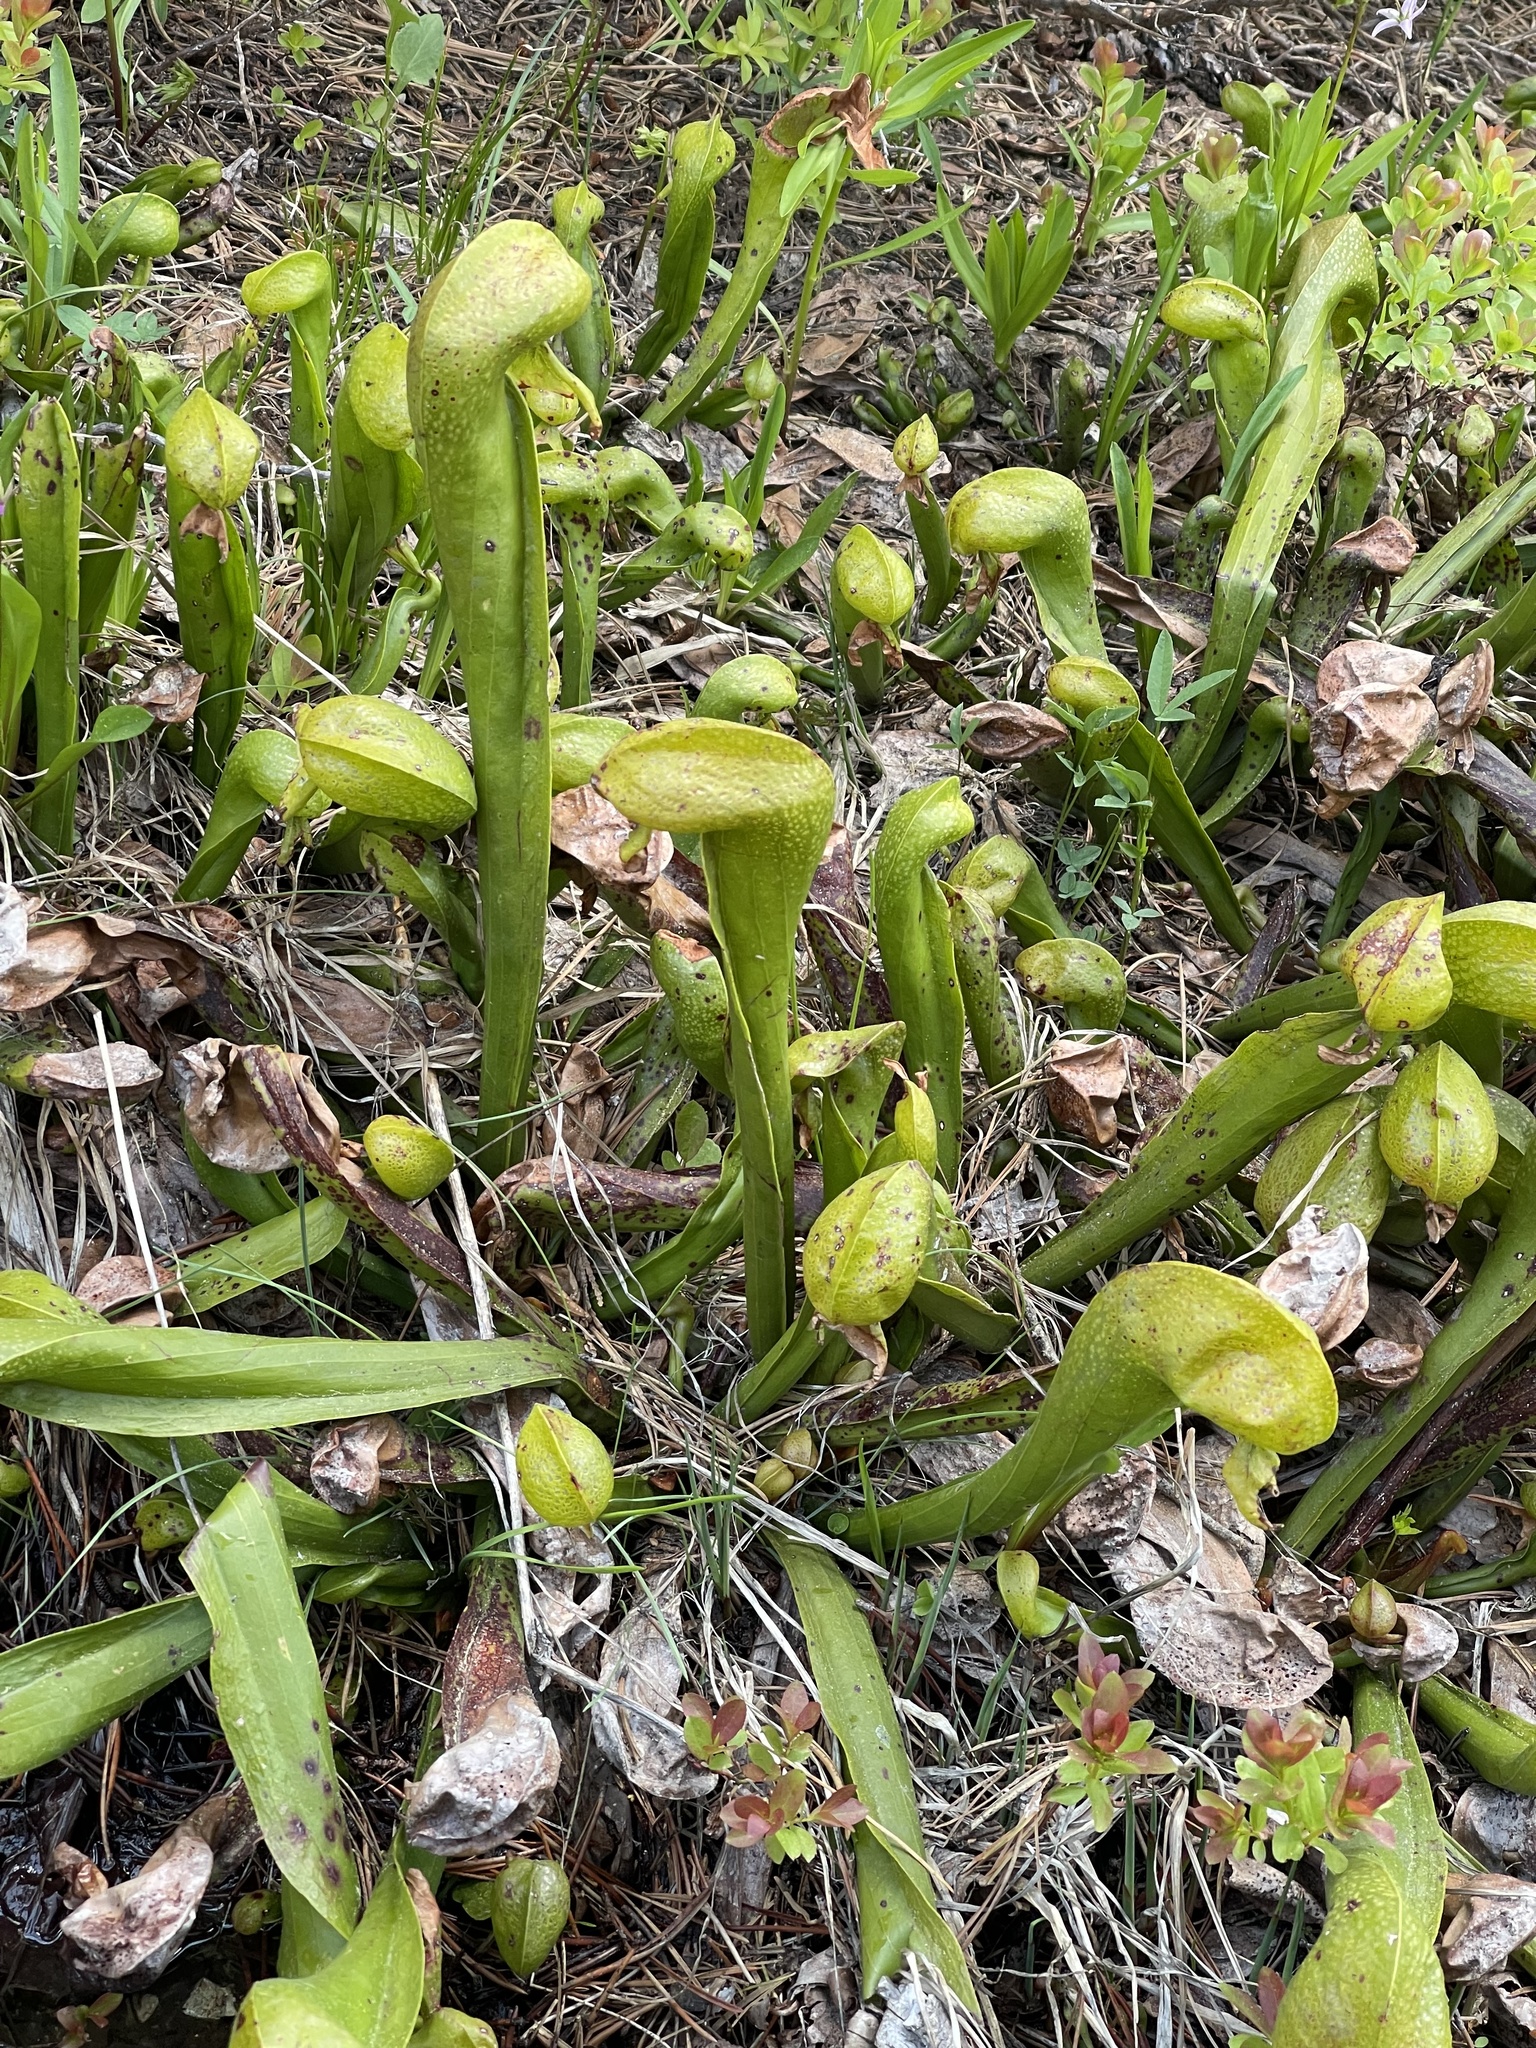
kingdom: Plantae
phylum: Tracheophyta
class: Magnoliopsida
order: Ericales
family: Sarraceniaceae
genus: Darlingtonia
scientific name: Darlingtonia californica
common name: California pitcher plant
